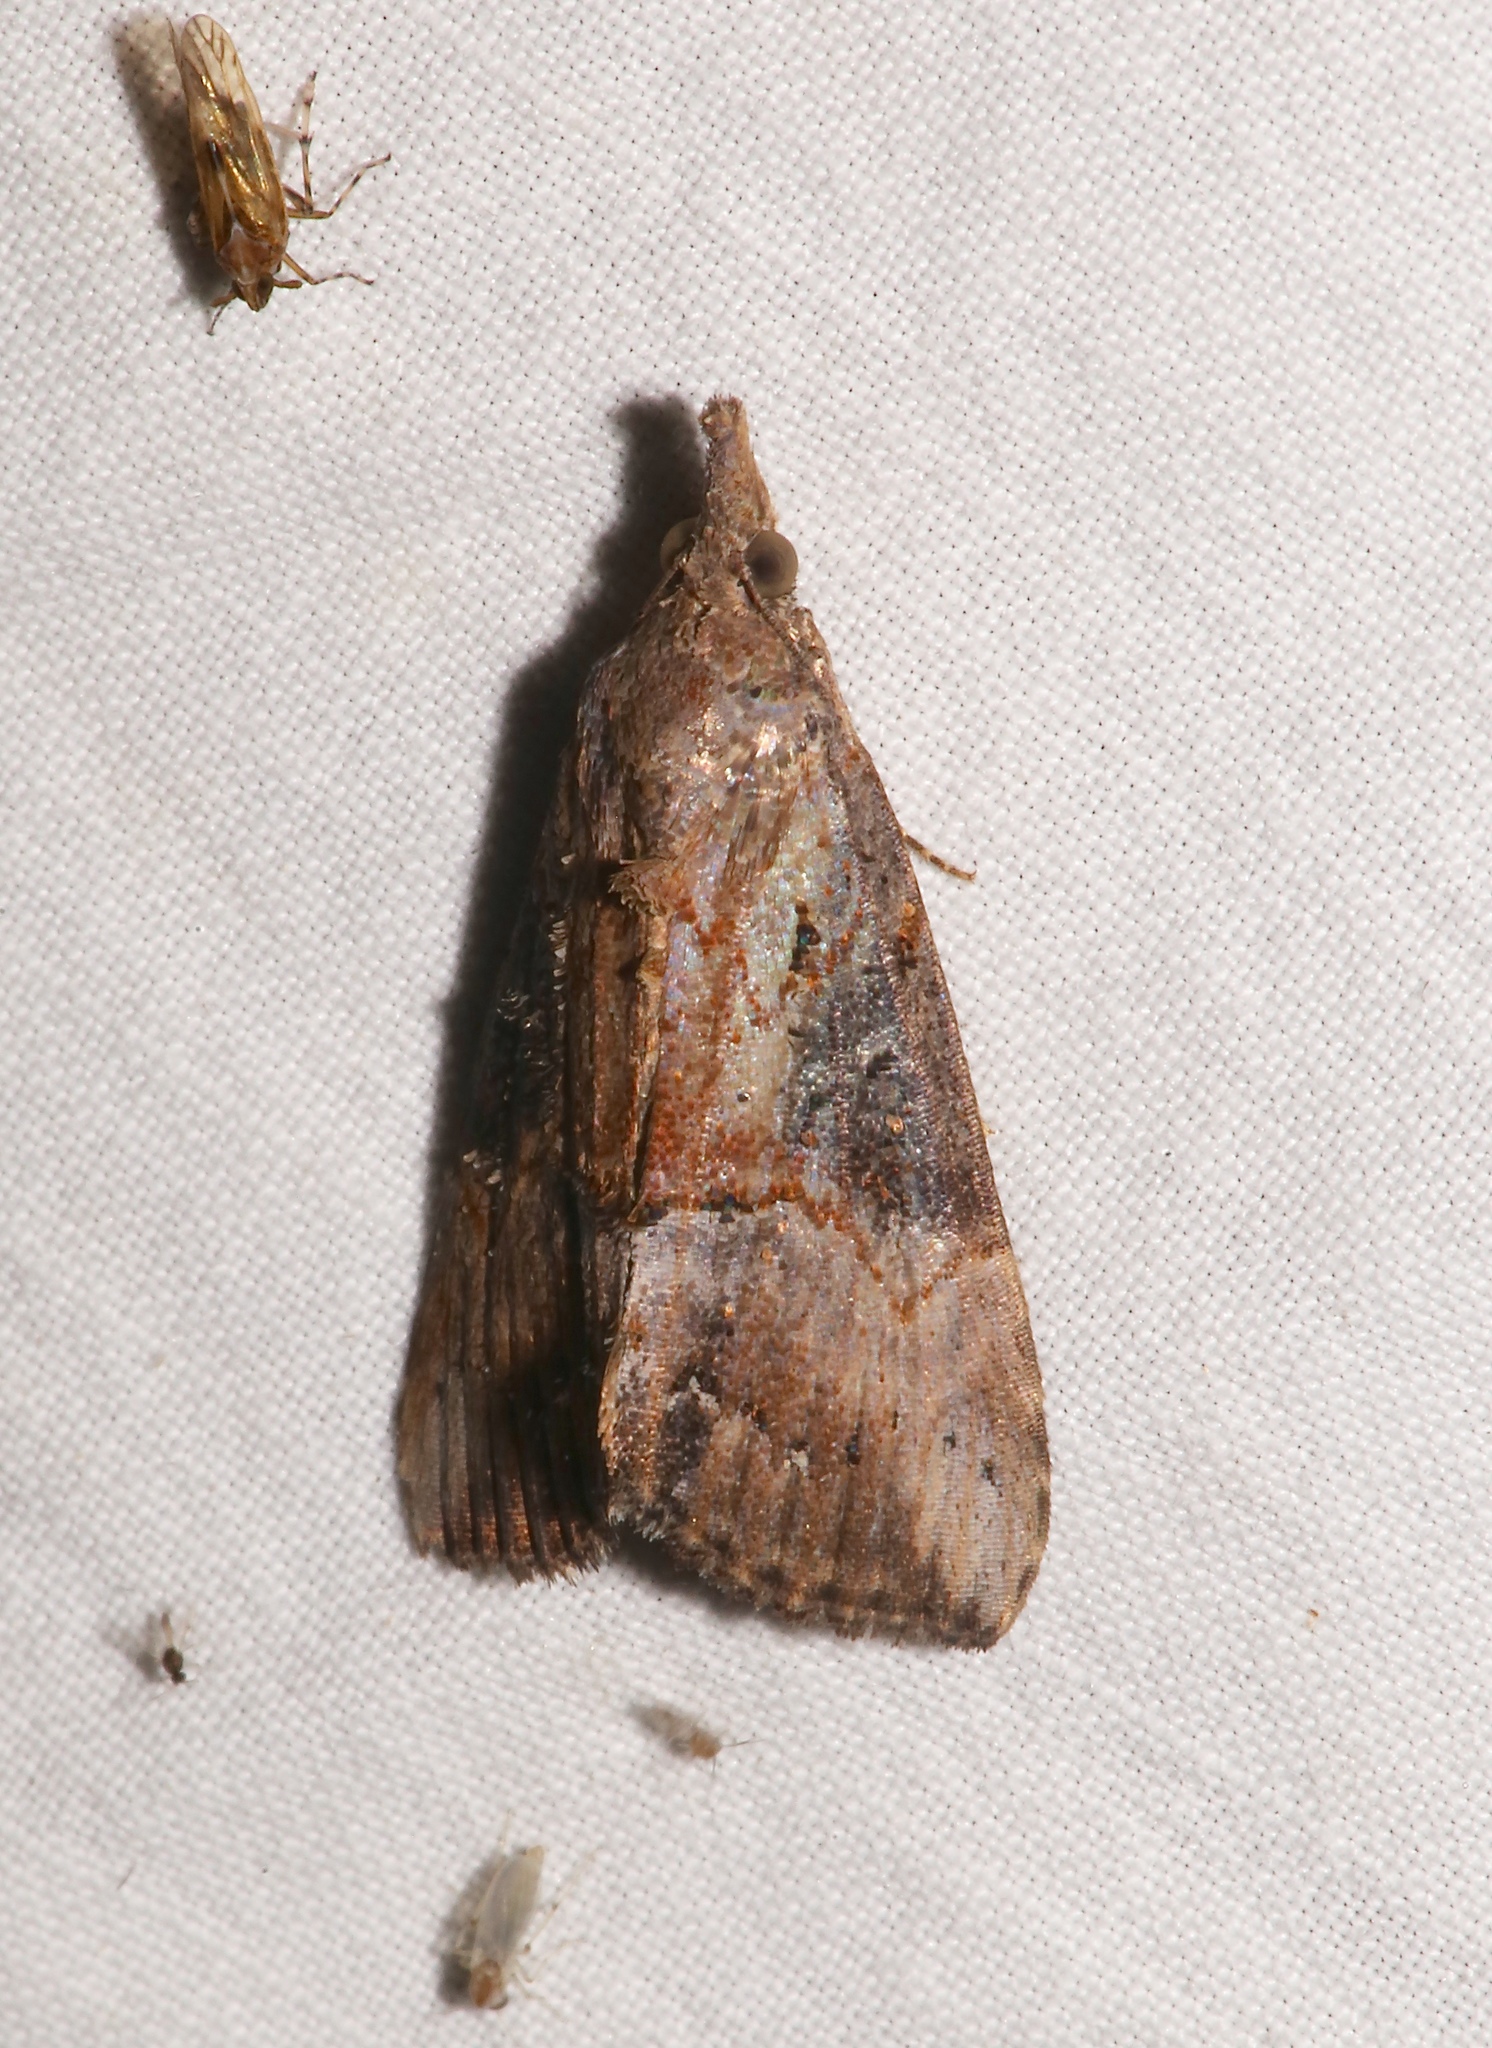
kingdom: Animalia
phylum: Arthropoda
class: Insecta
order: Lepidoptera
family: Erebidae
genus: Hypena
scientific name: Hypena scabra
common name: Green cloverworm
